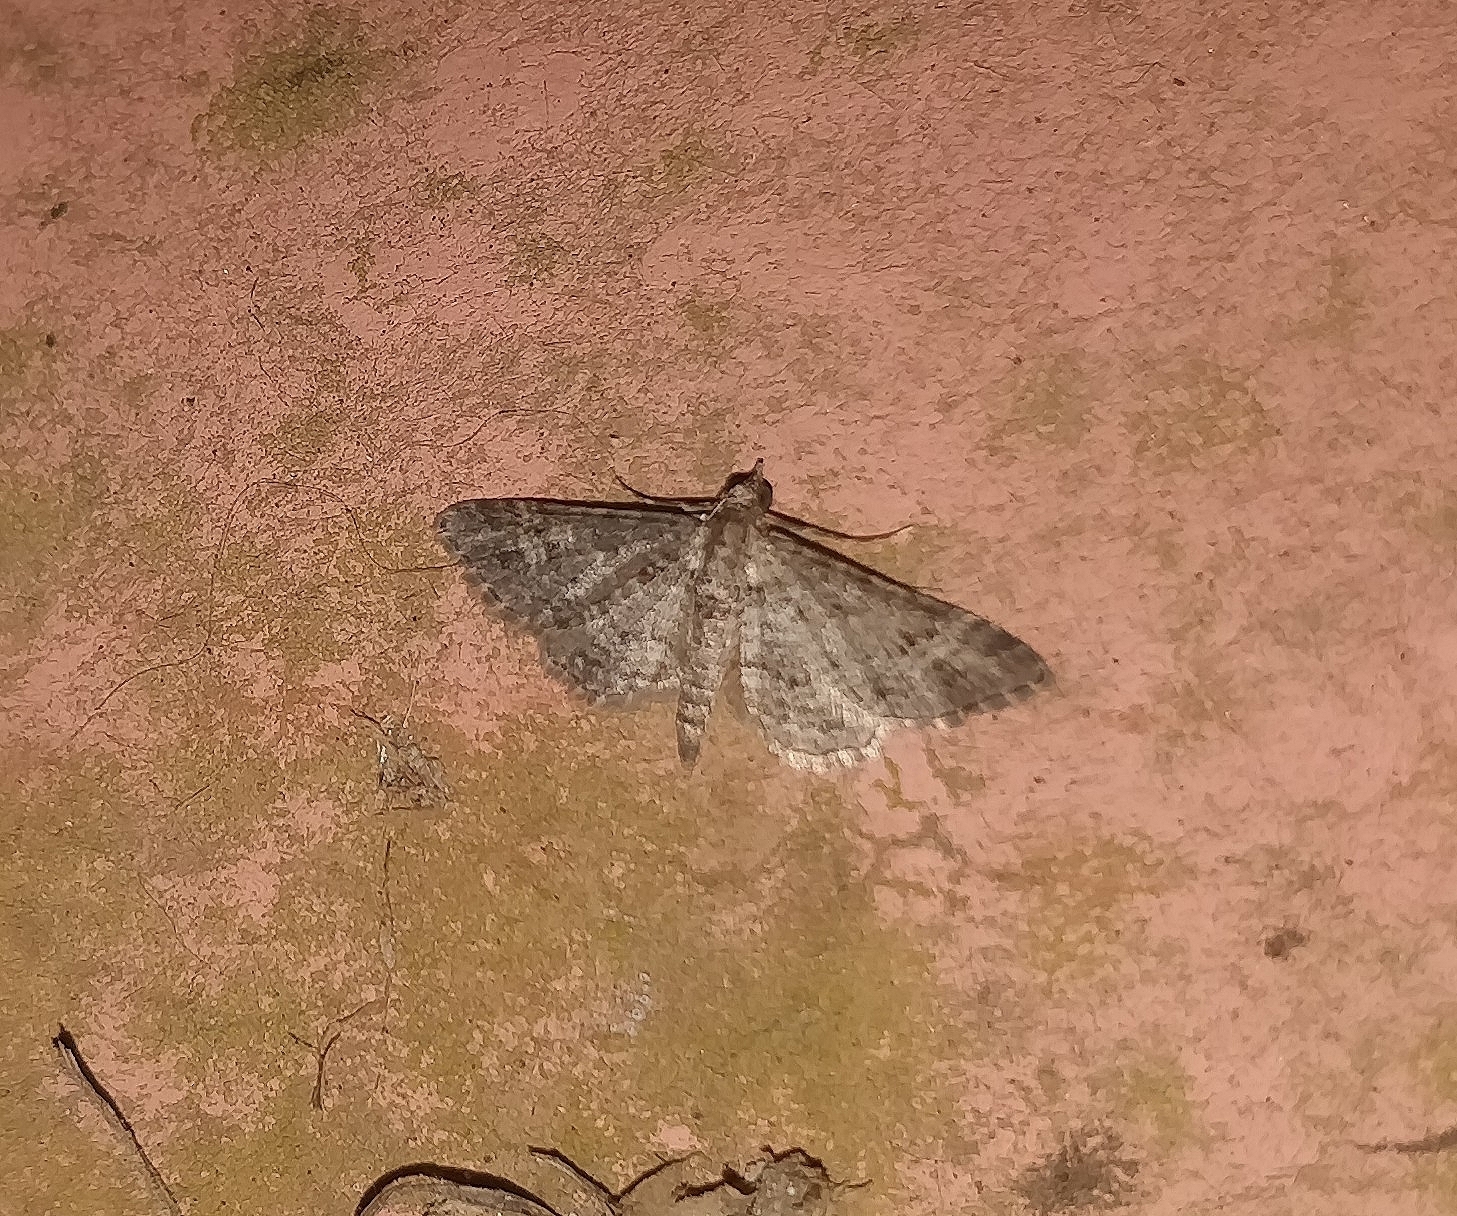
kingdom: Animalia
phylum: Arthropoda
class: Insecta
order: Lepidoptera
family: Geometridae
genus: Gymnoscelis
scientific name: Gymnoscelis rufifasciata
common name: Double-striped pug
